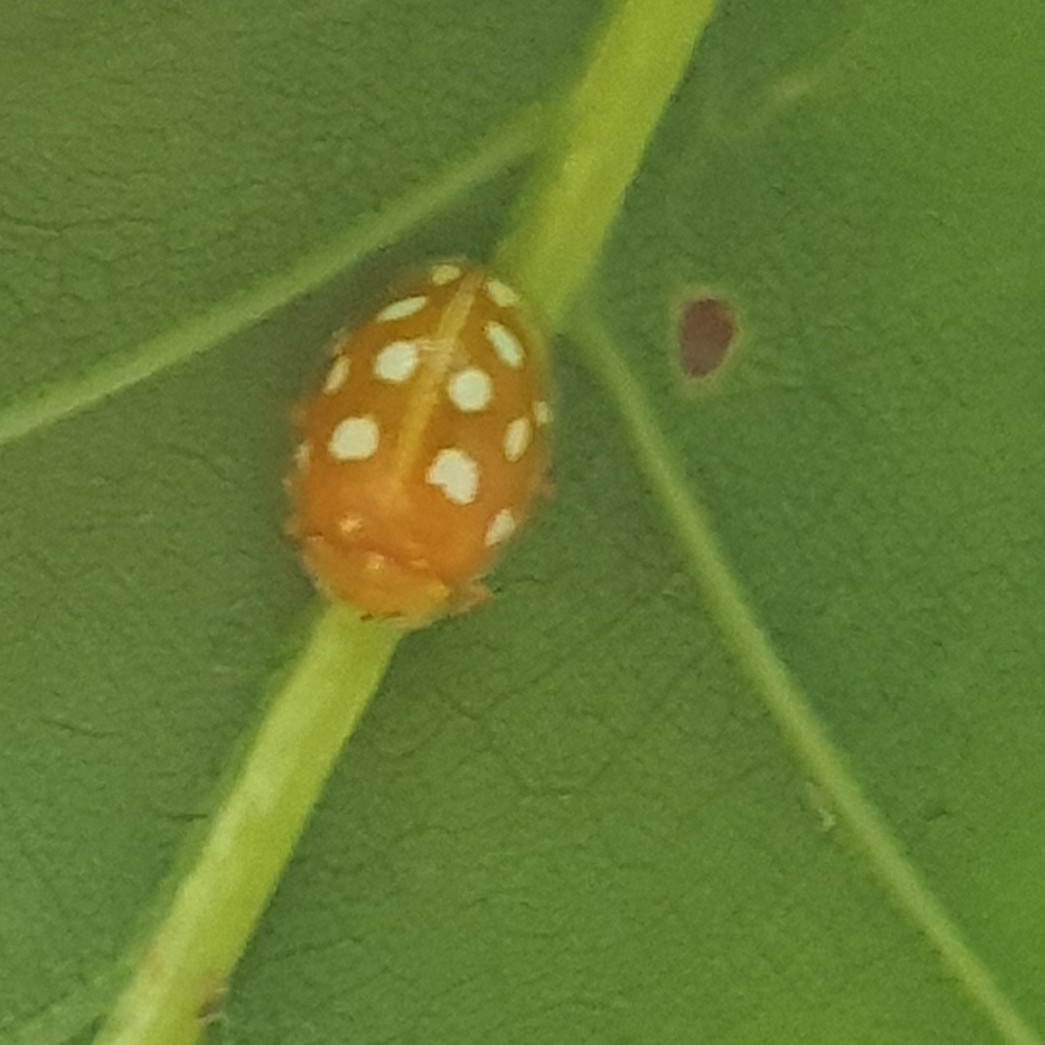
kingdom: Animalia
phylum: Arthropoda
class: Insecta
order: Coleoptera
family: Coccinellidae
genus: Halyzia
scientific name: Halyzia sedecimguttata
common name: Orange ladybird
